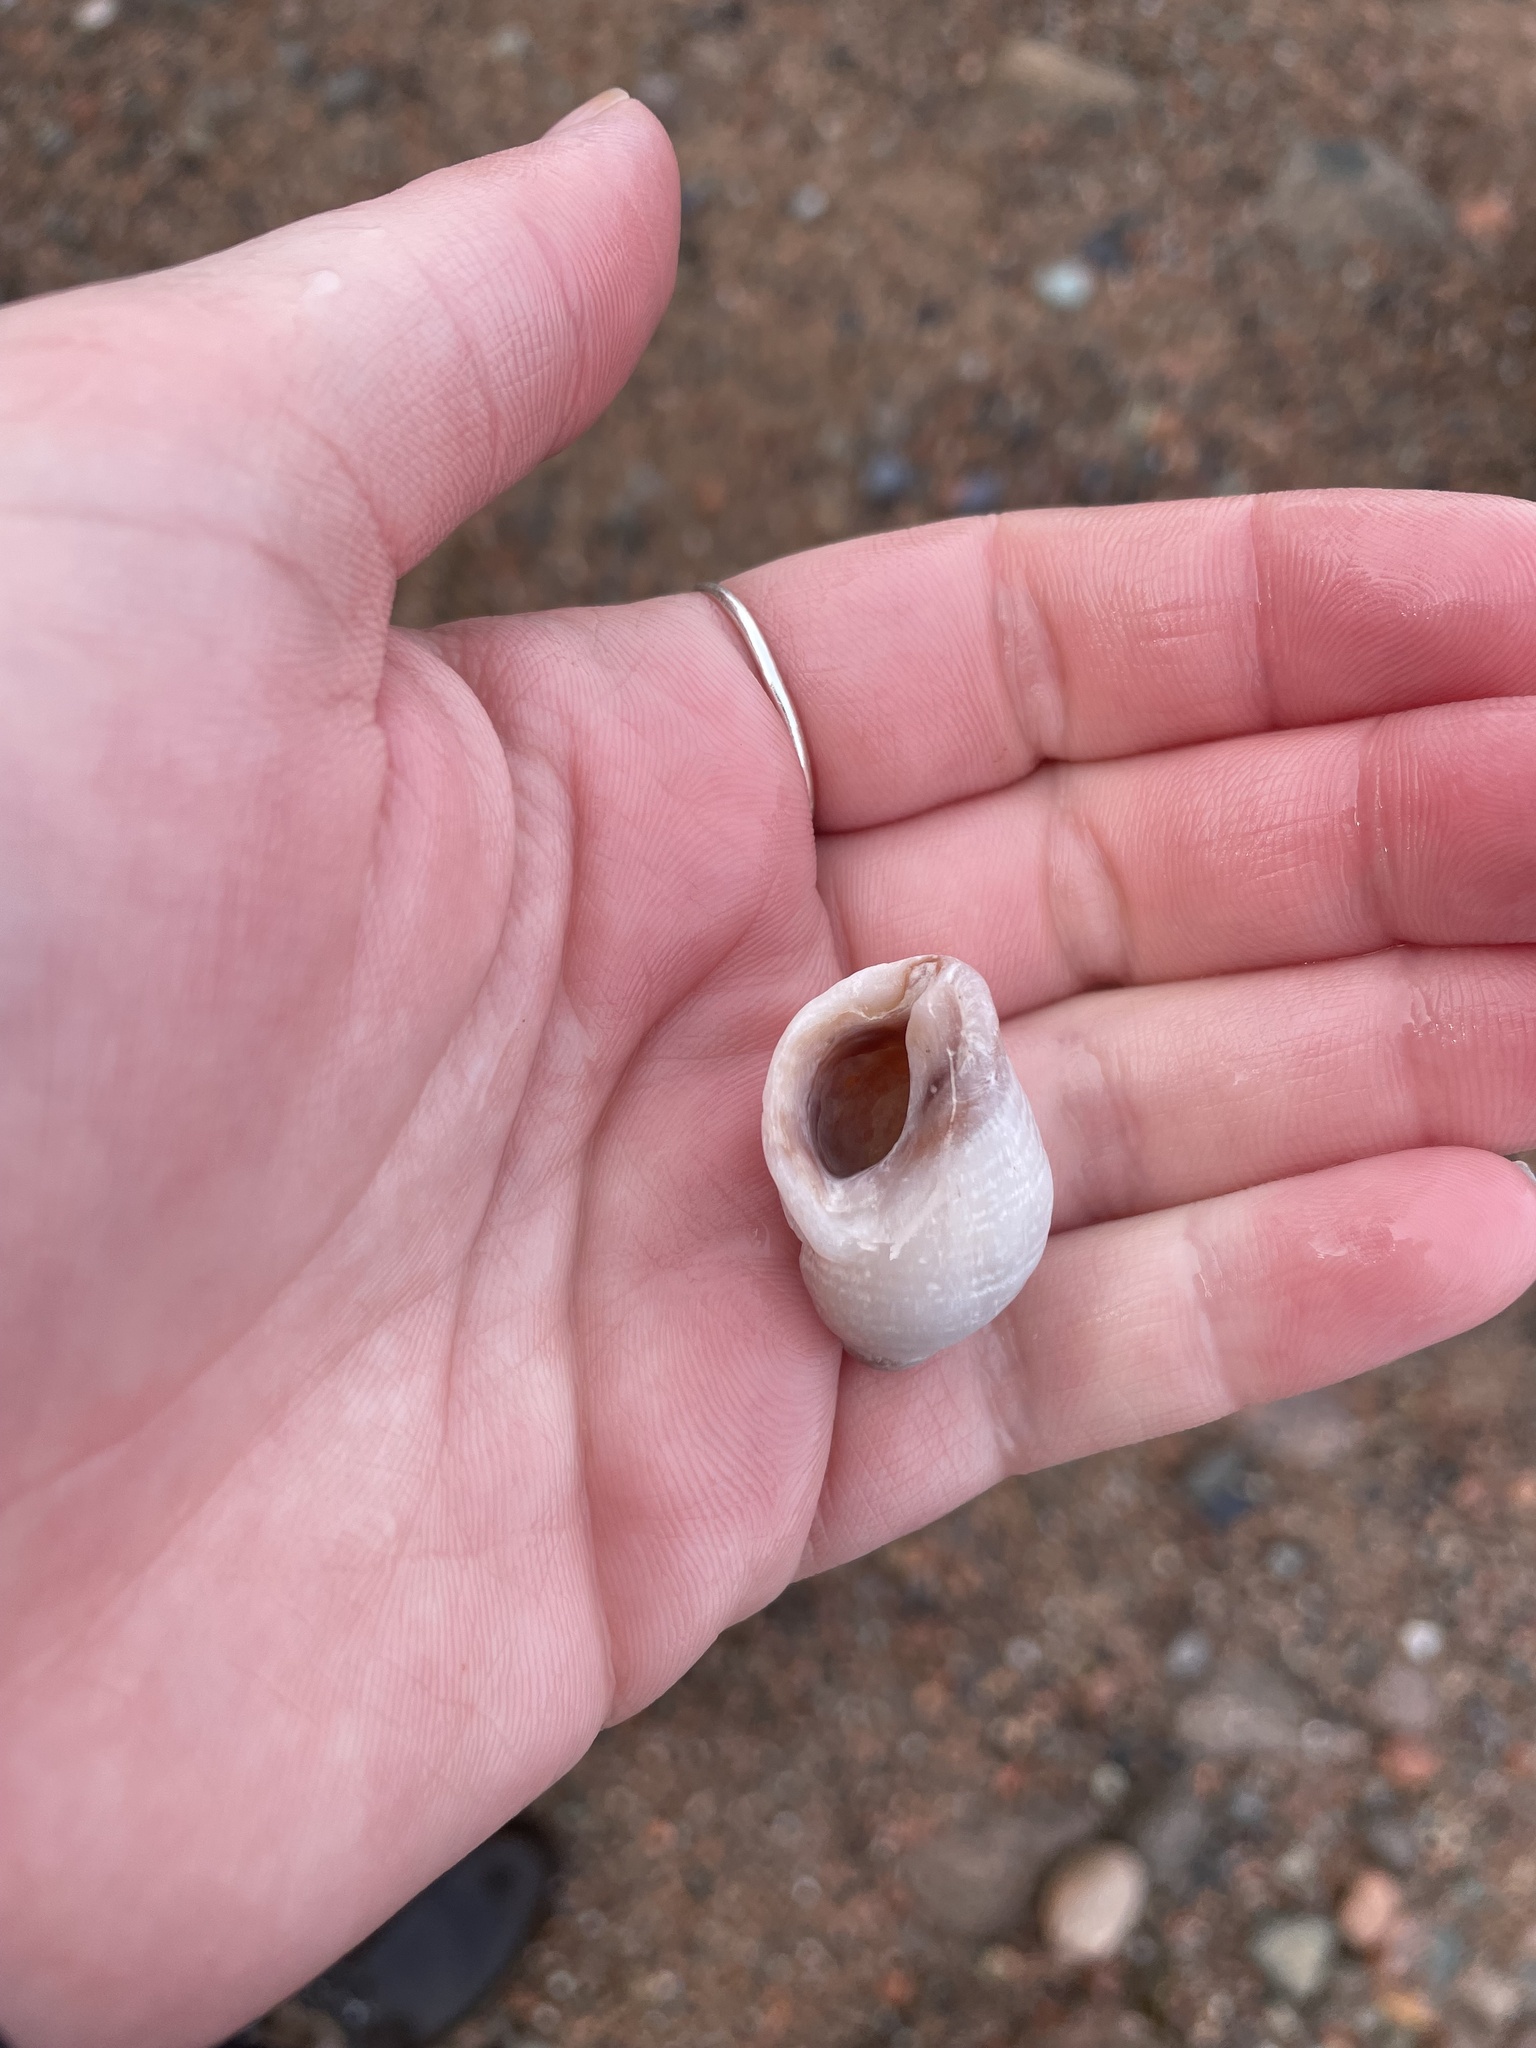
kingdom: Animalia
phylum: Mollusca
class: Gastropoda
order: Neogastropoda
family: Muricidae
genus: Nucella
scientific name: Nucella lapillus
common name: Dog whelk
